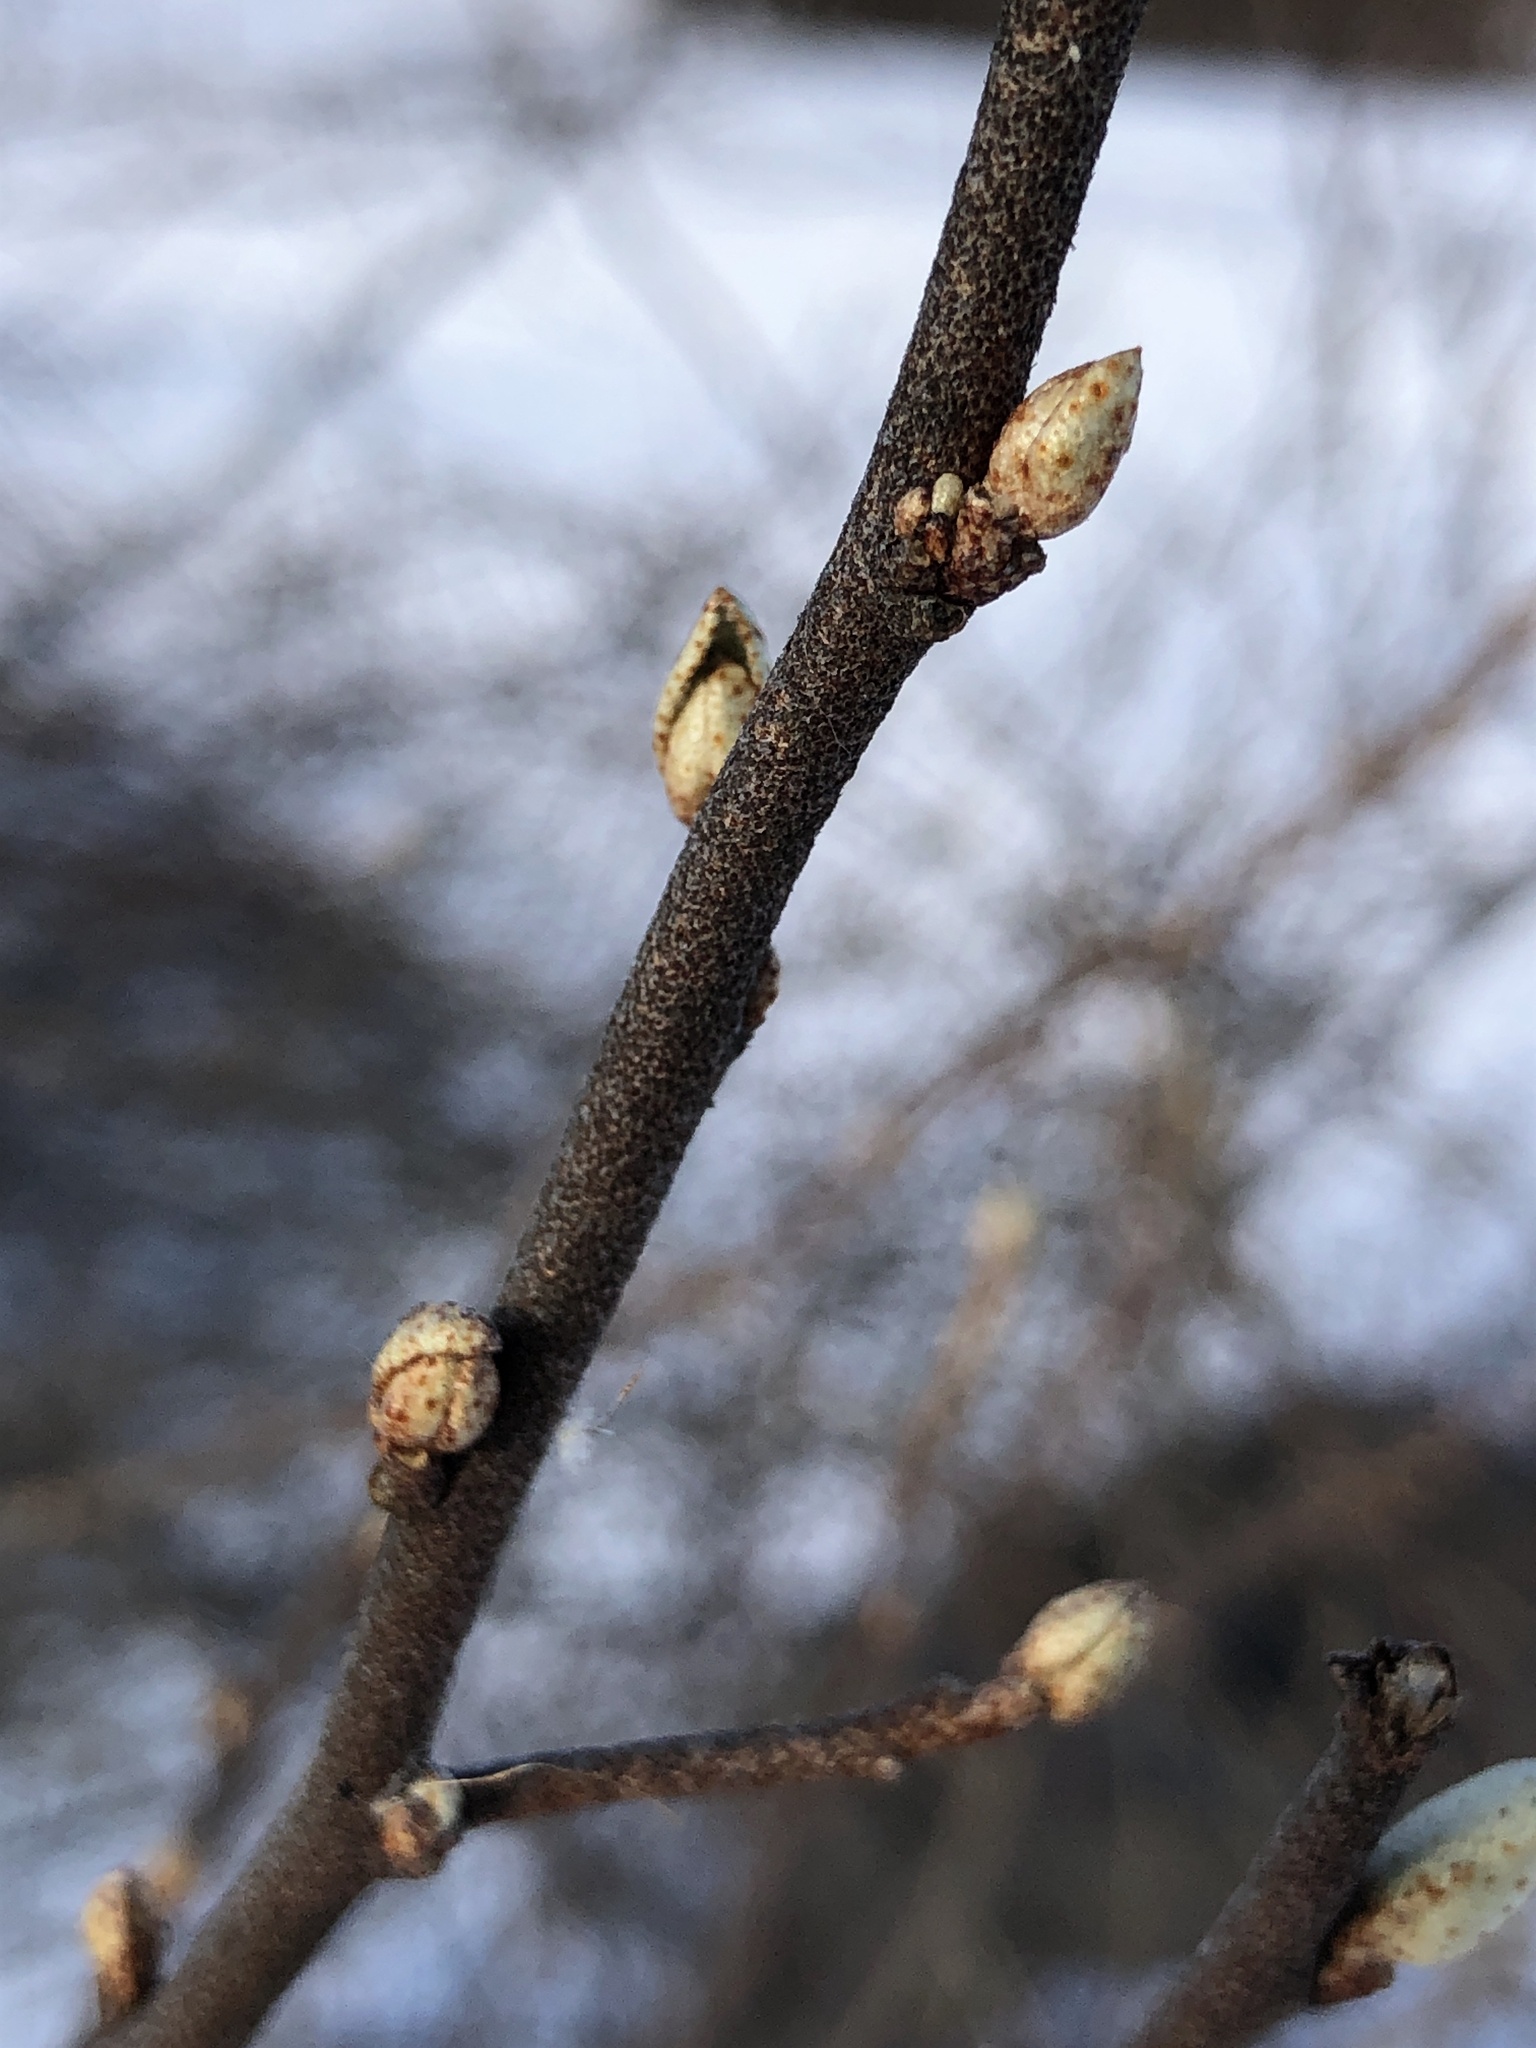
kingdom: Plantae
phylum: Tracheophyta
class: Magnoliopsida
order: Rosales
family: Elaeagnaceae
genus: Elaeagnus
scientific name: Elaeagnus umbellata
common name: Autumn olive
